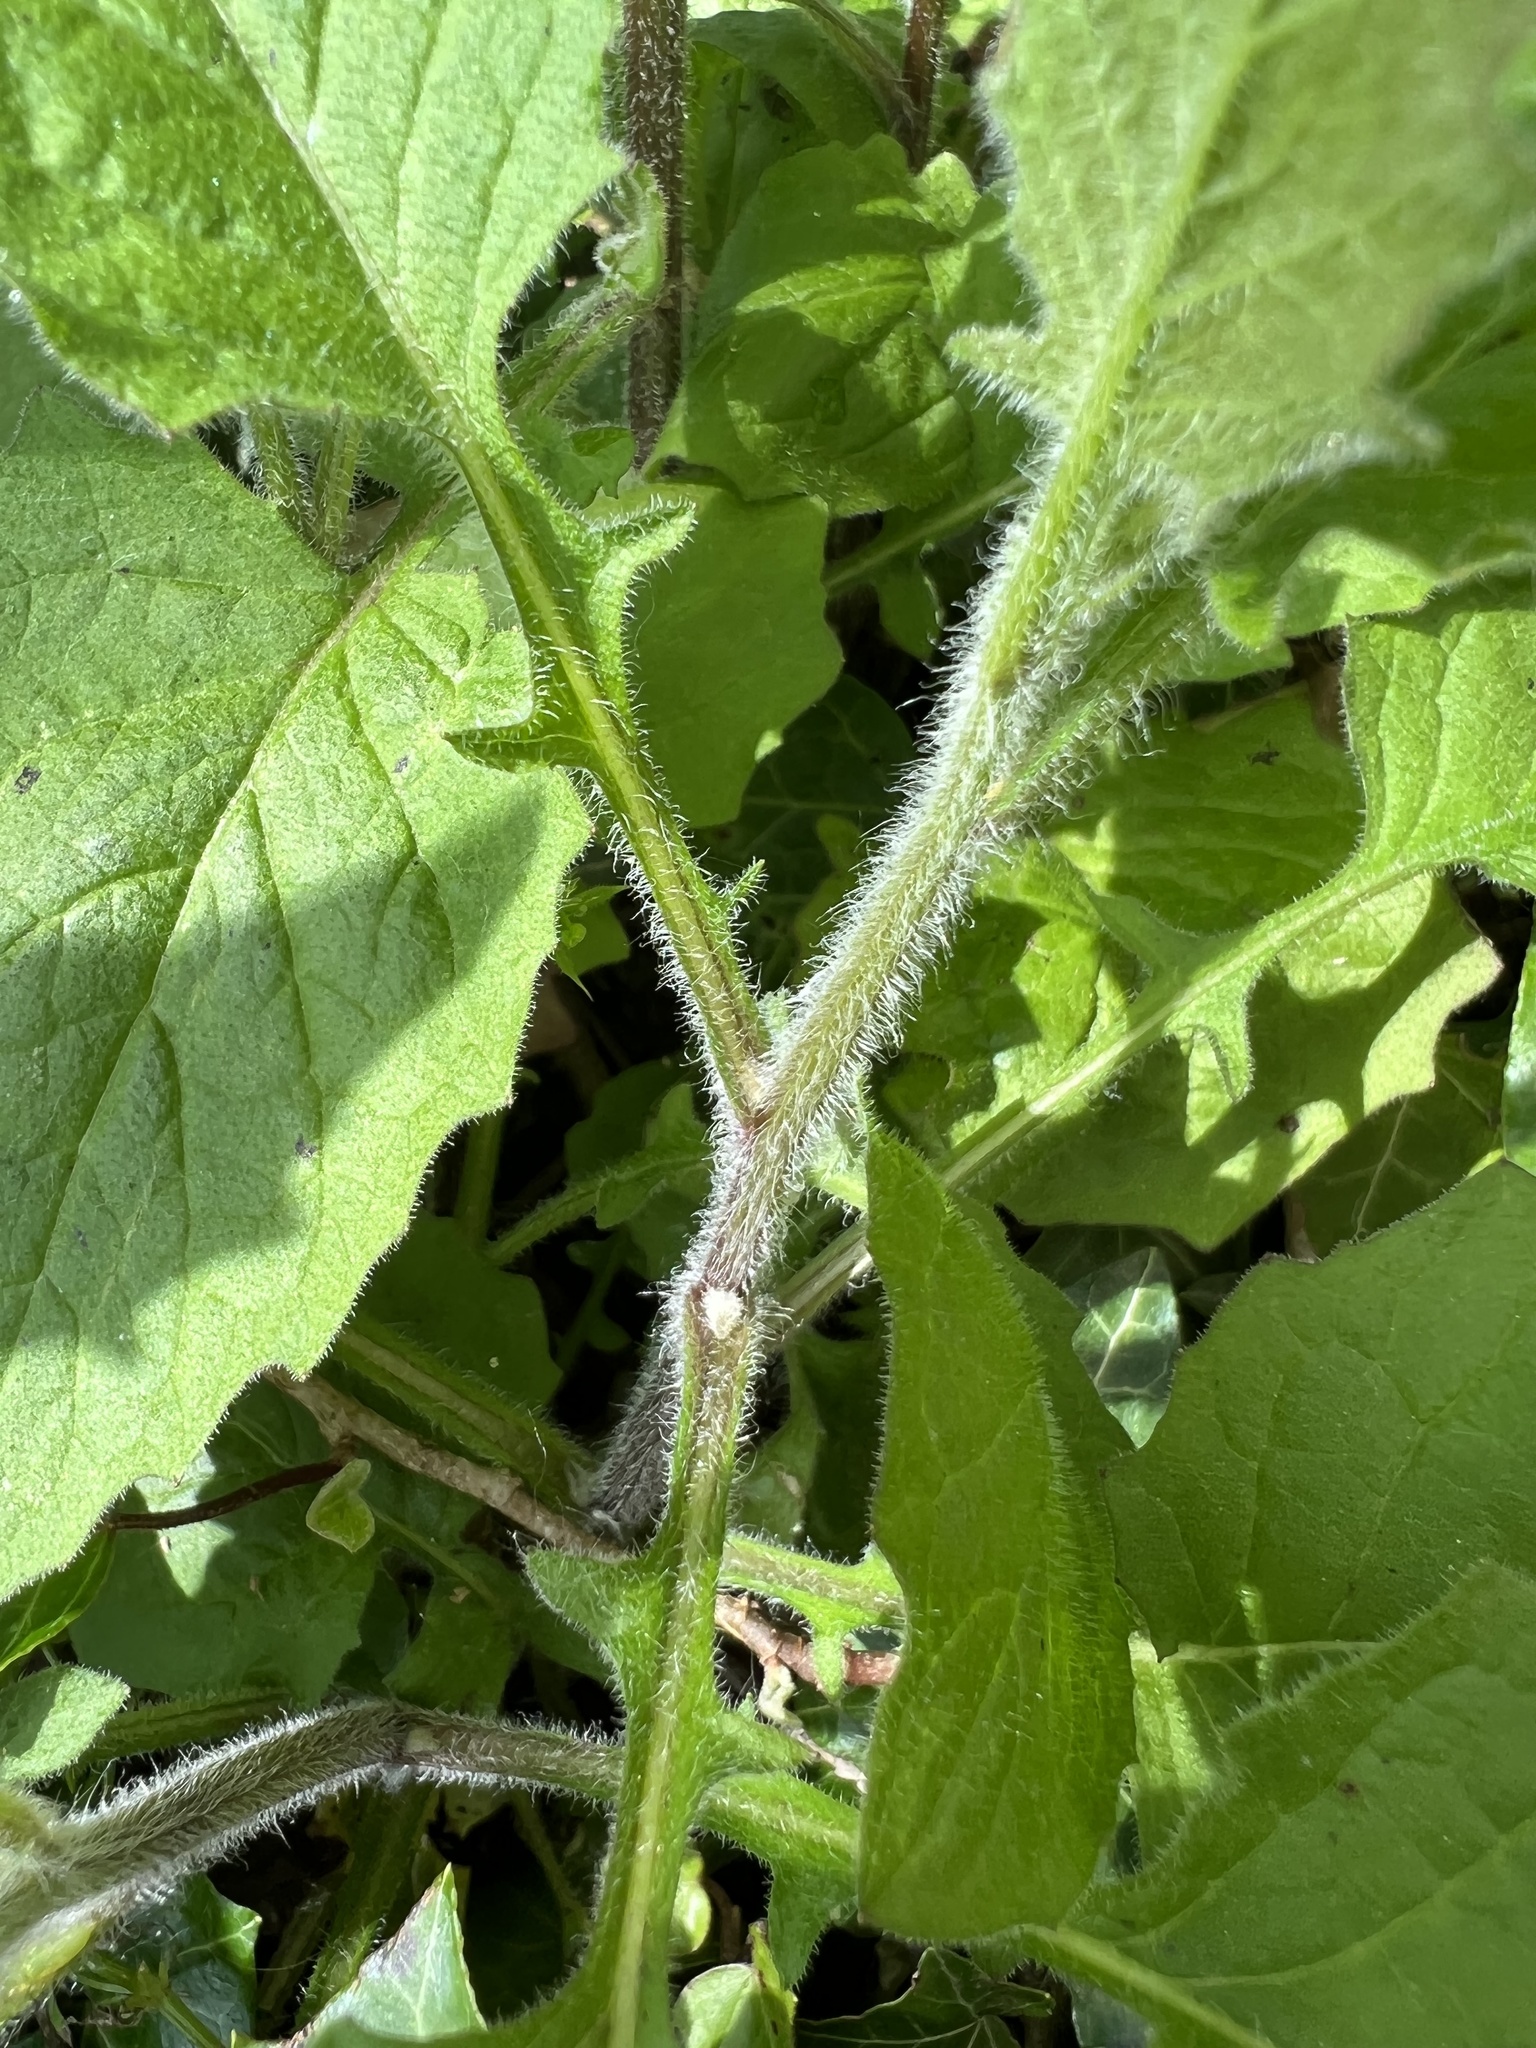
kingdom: Plantae
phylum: Tracheophyta
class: Magnoliopsida
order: Asterales
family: Asteraceae
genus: Lapsana
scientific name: Lapsana communis
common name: Nipplewort
